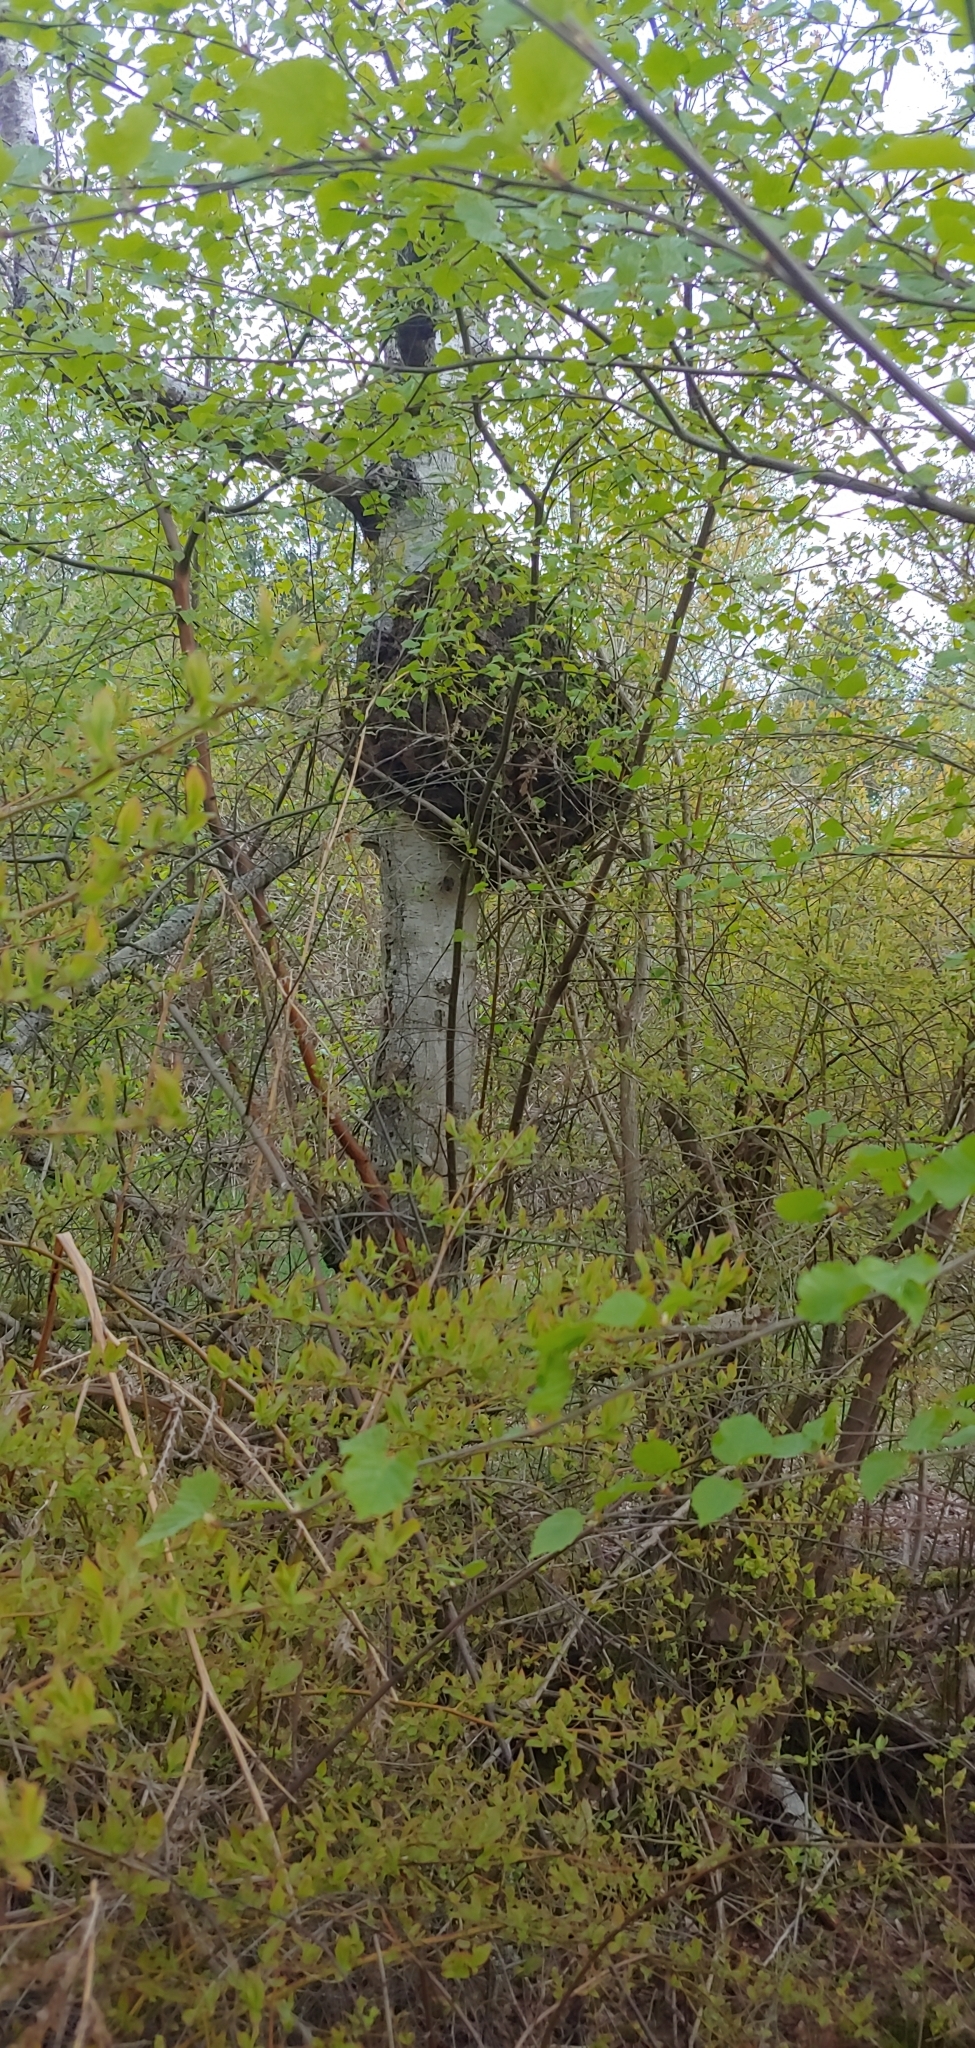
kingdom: Bacteria
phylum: Proteobacteria
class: Alphaproteobacteria
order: Rhizobiales
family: Rhizobiaceae
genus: Rhizobium
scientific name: Rhizobium Agrobacterium radiobacter
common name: Bacterial crown gall
